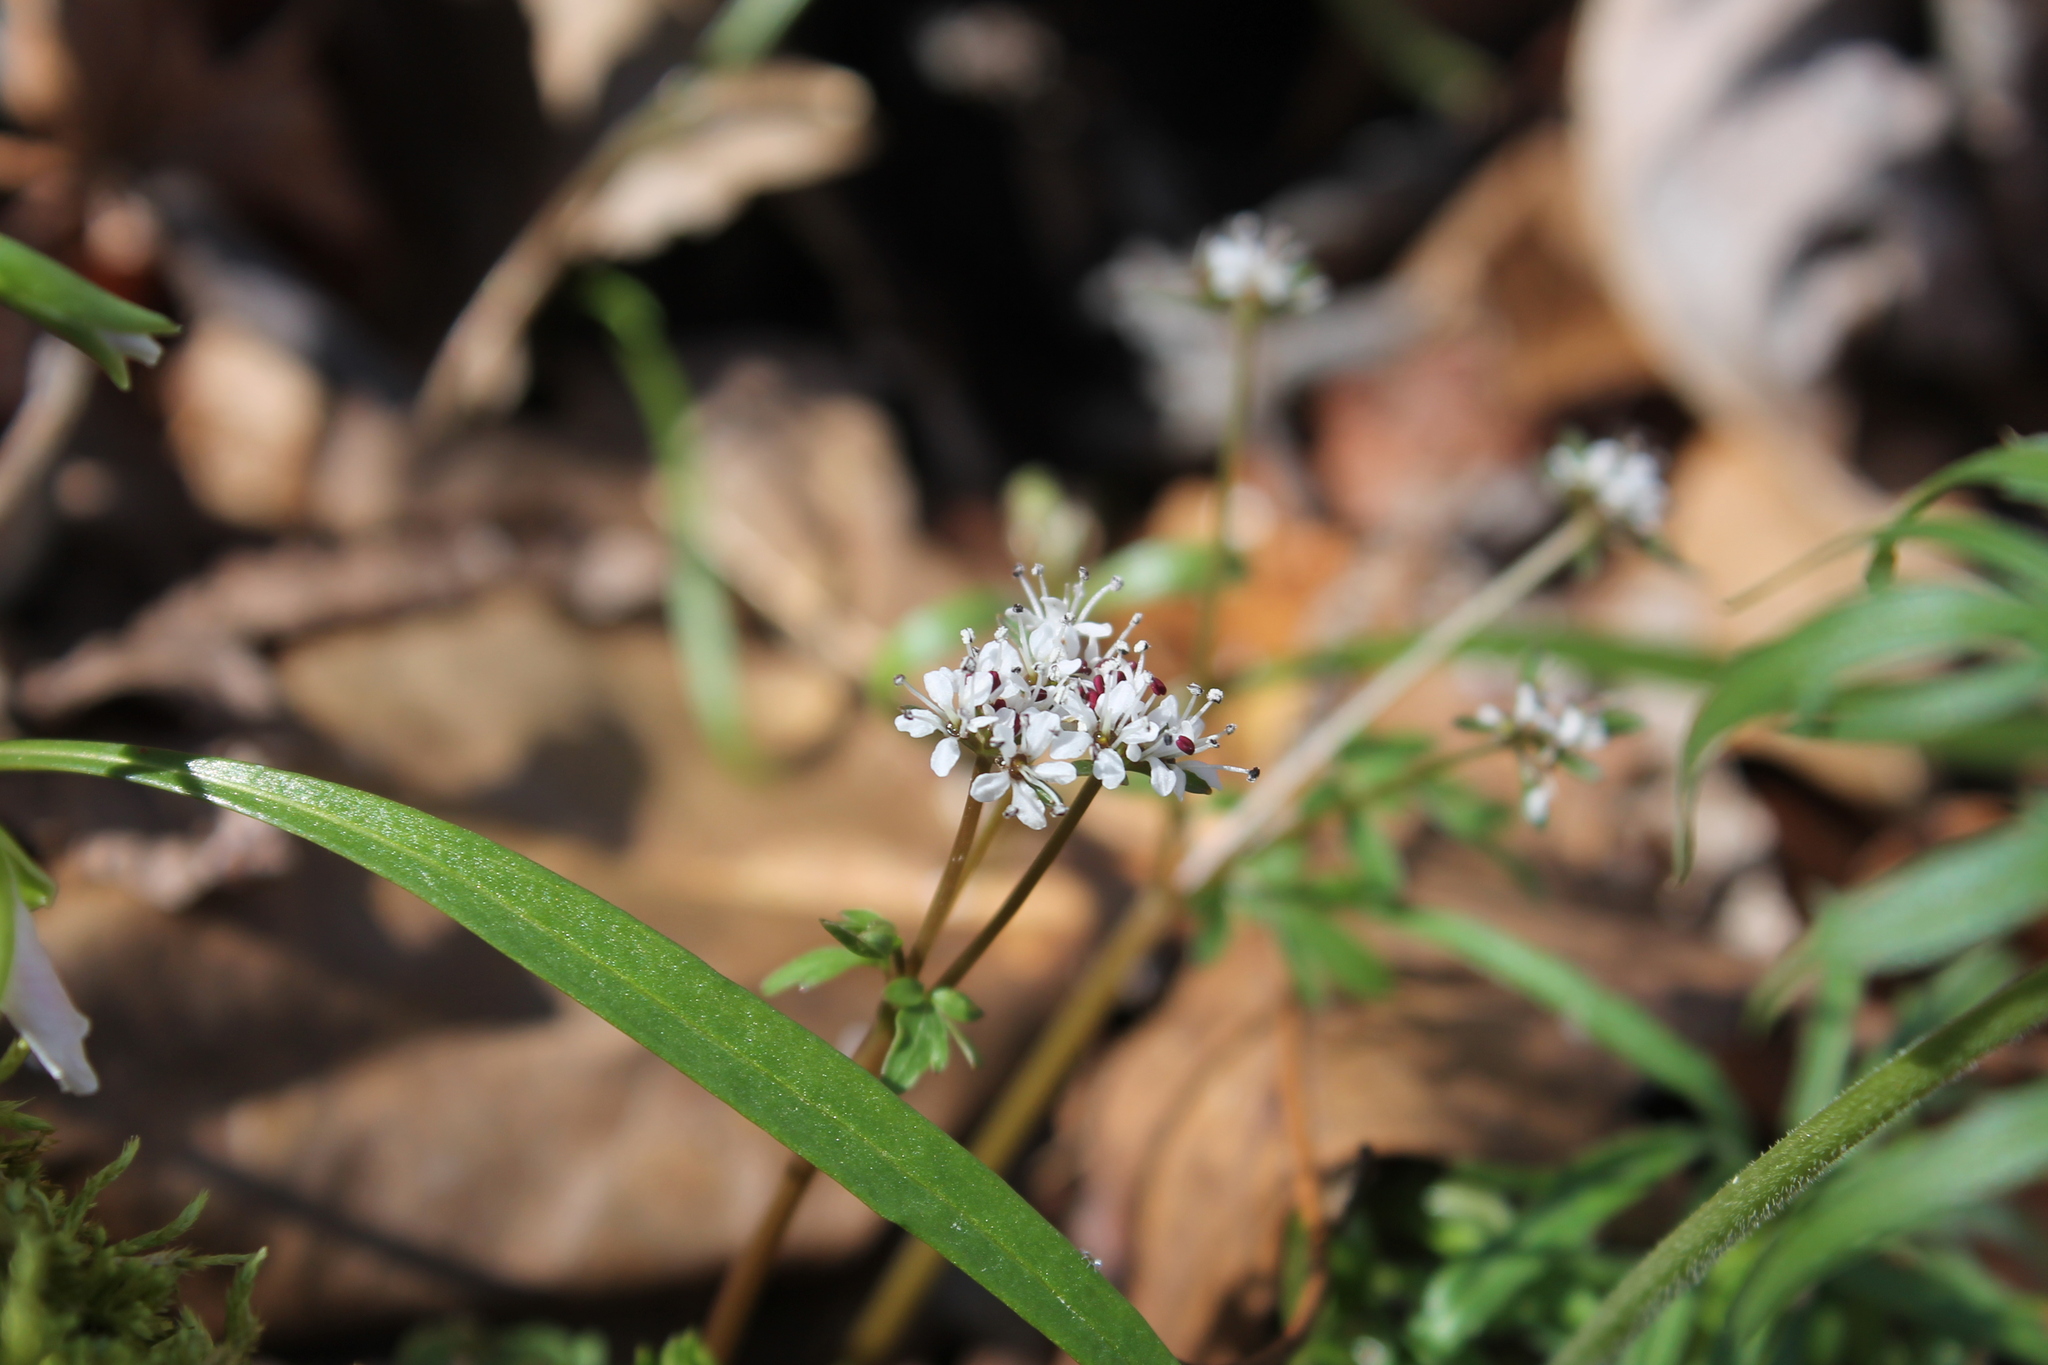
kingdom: Plantae
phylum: Tracheophyta
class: Magnoliopsida
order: Apiales
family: Apiaceae
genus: Erigenia
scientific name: Erigenia bulbosa
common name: Pepper-and-salt
